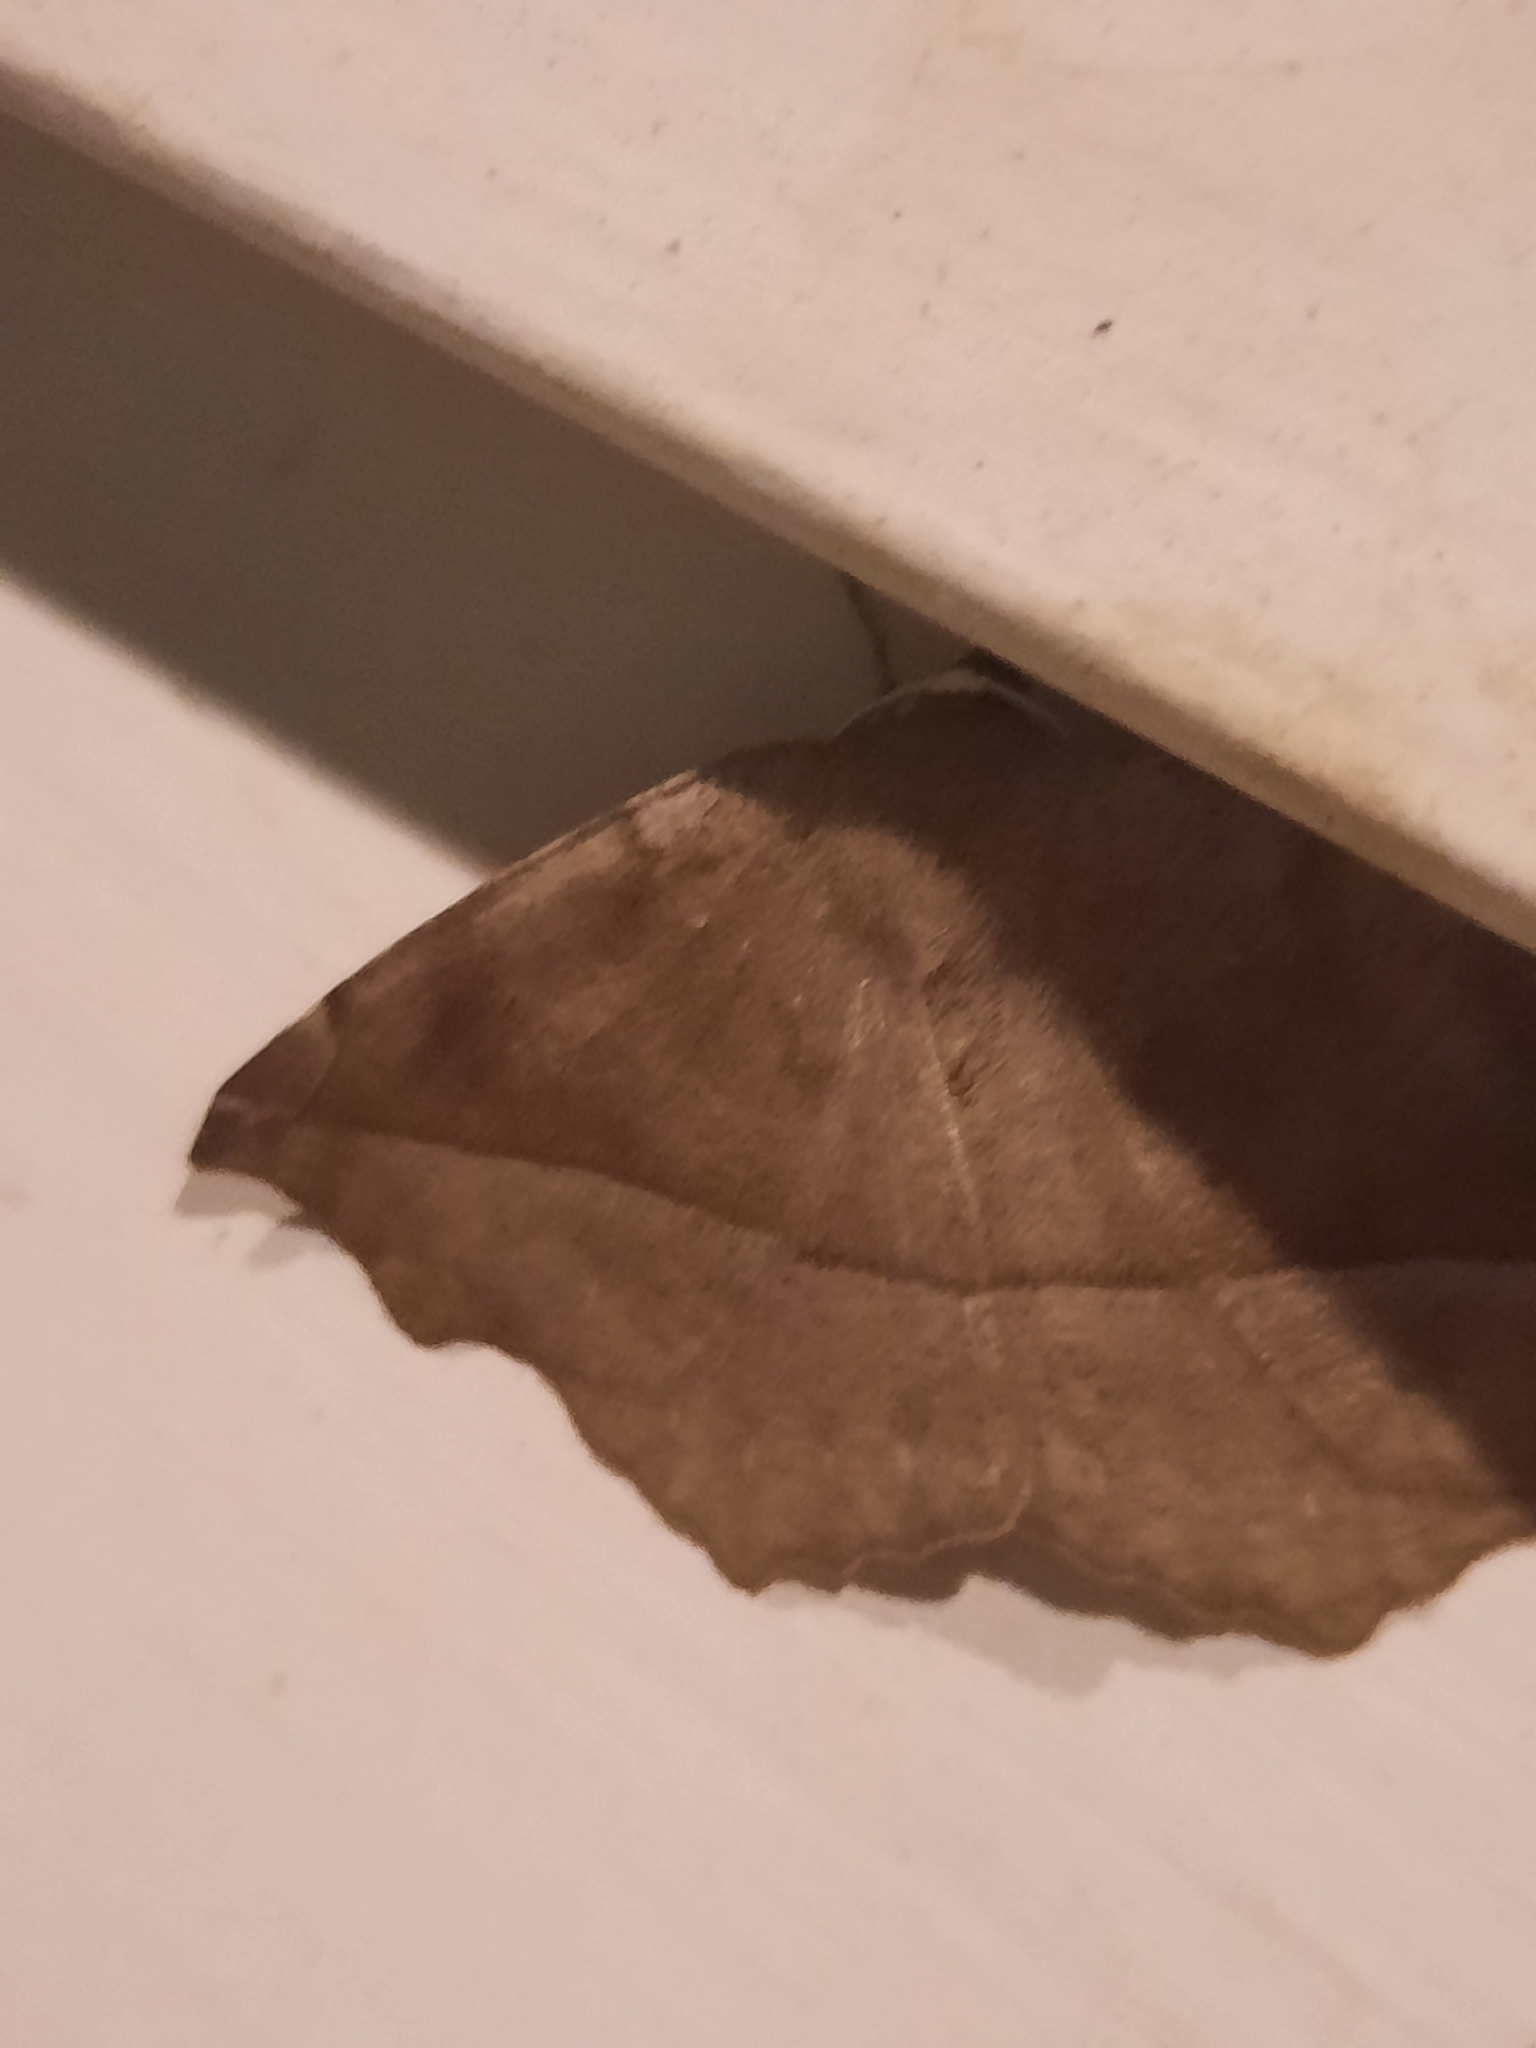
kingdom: Animalia
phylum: Arthropoda
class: Insecta
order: Lepidoptera
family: Geometridae
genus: Eutrapela
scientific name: Eutrapela clemataria
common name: Curved-toothed geometer
